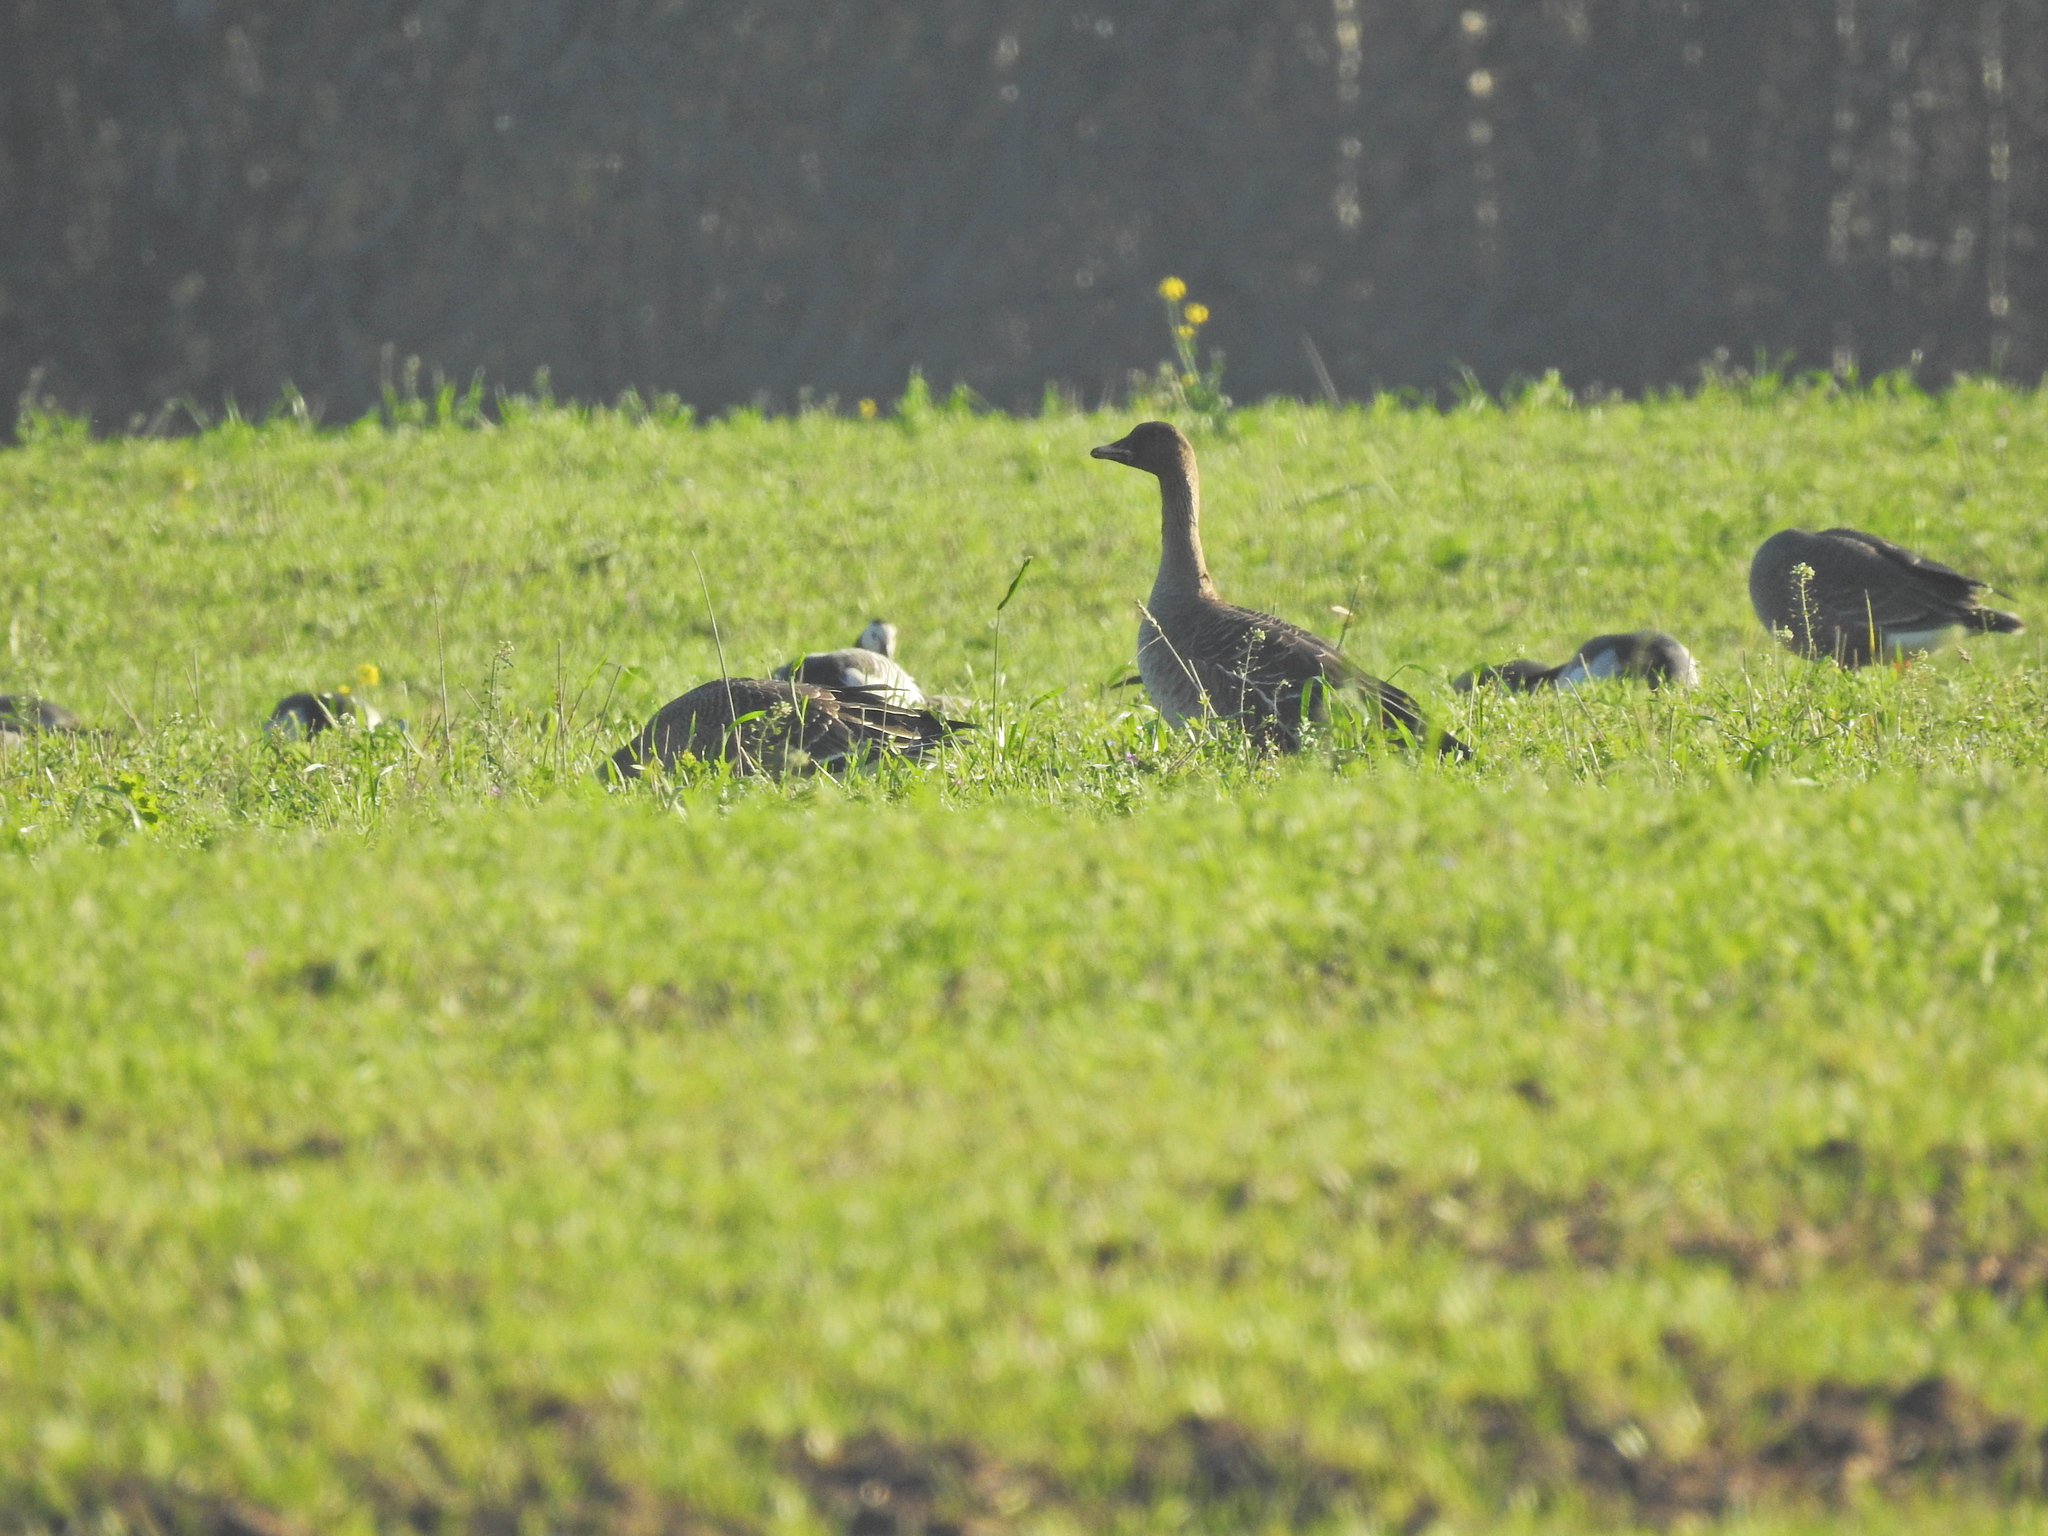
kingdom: Animalia
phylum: Chordata
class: Aves
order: Anseriformes
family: Anatidae
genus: Anser
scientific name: Anser fabalis
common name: Bean goose
